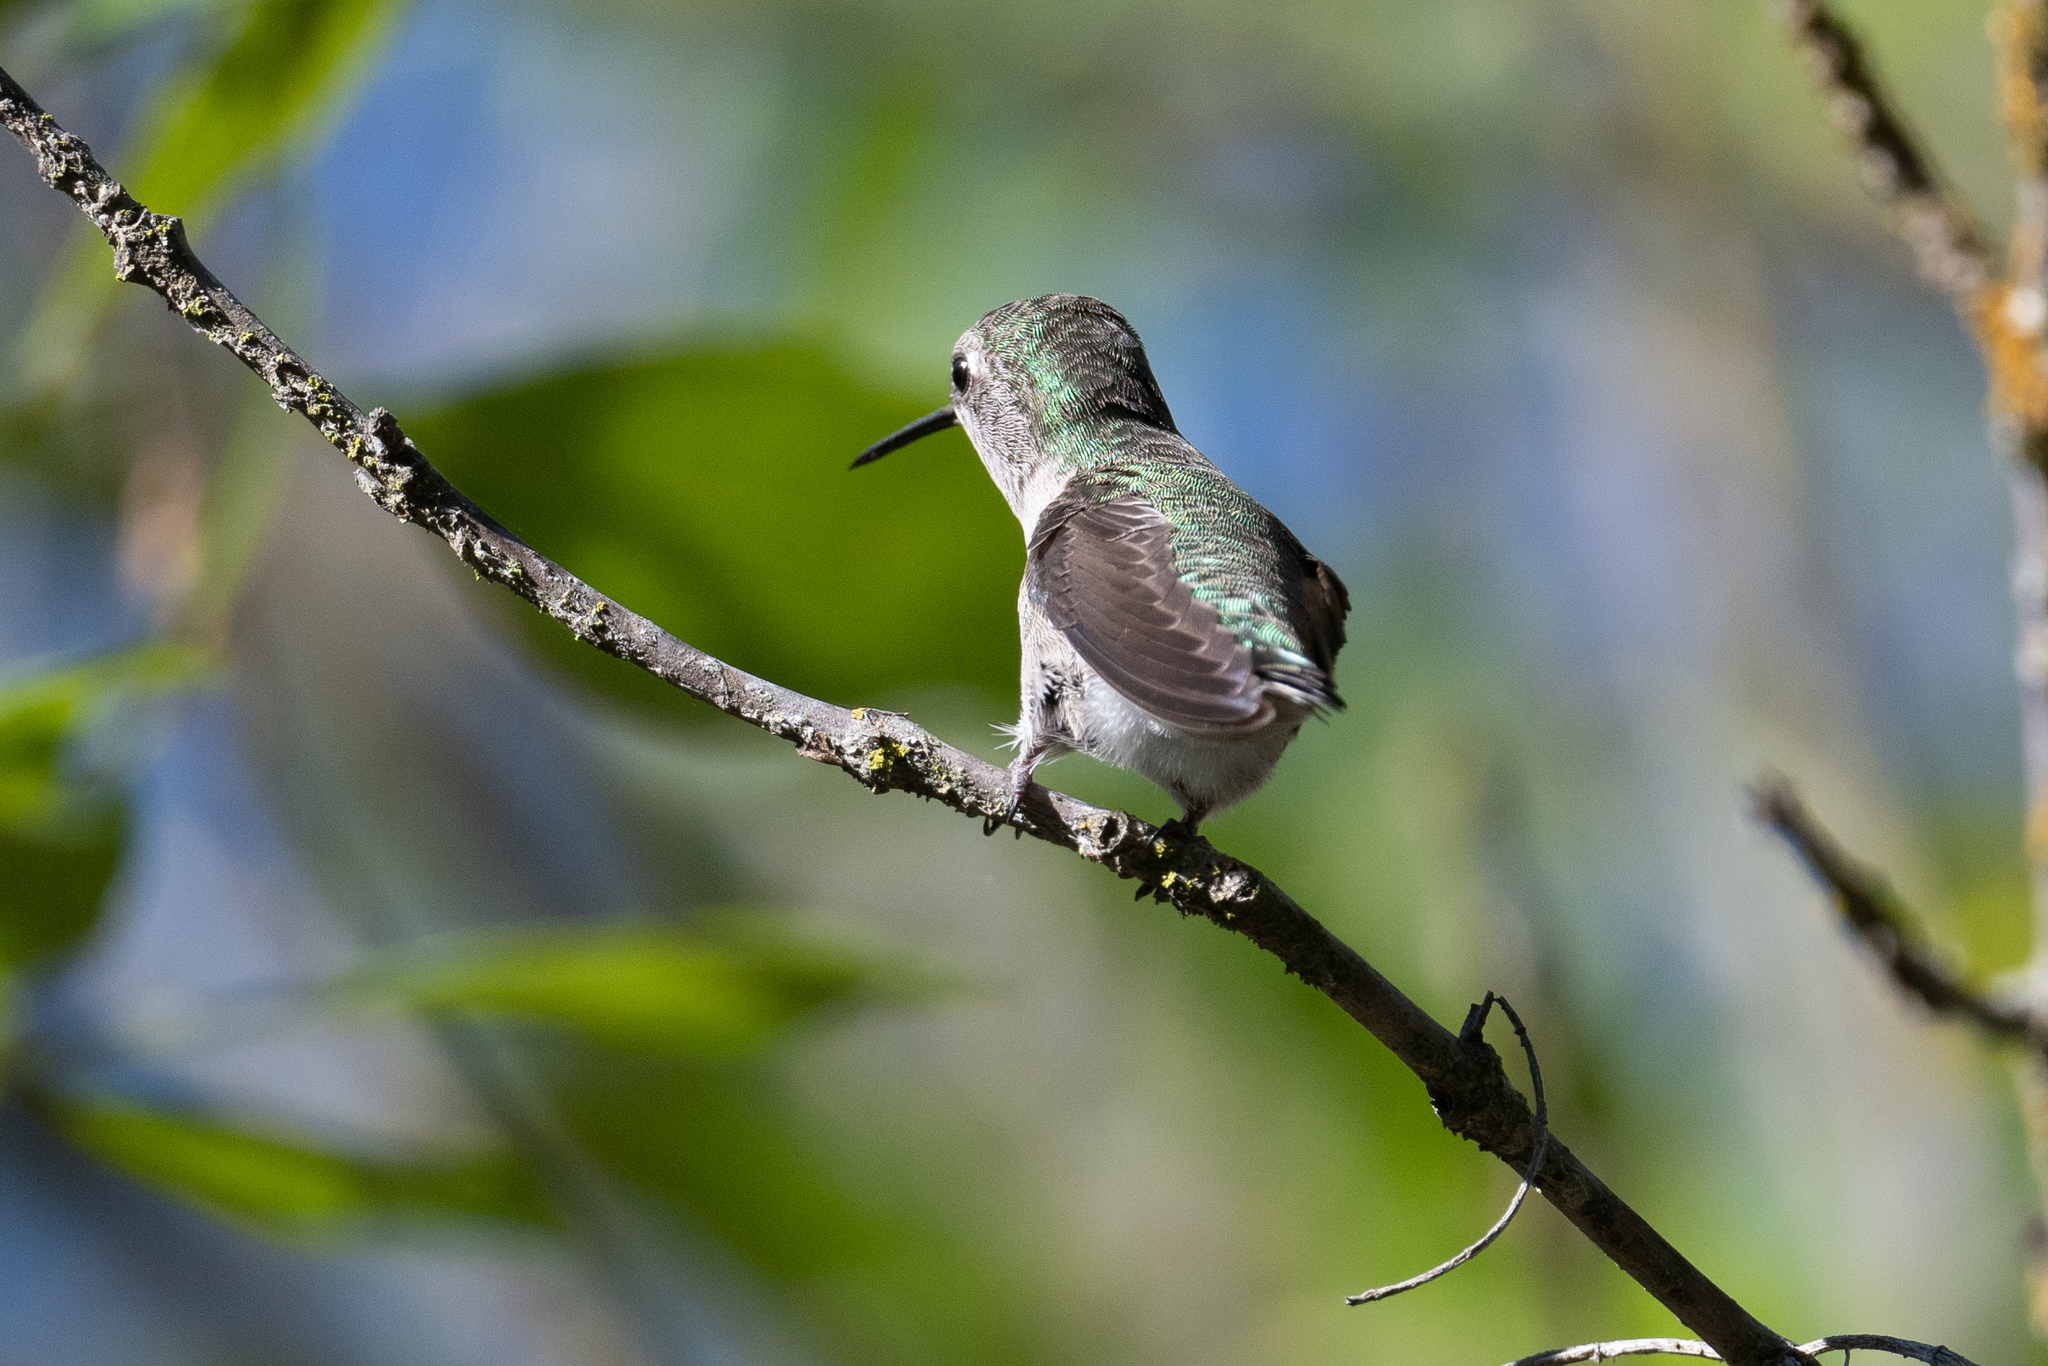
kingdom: Animalia
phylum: Chordata
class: Aves
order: Apodiformes
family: Trochilidae
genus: Calypte
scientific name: Calypte anna
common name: Anna's hummingbird
